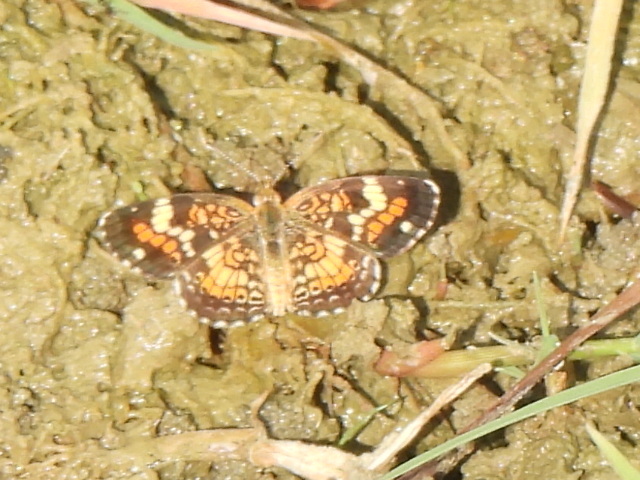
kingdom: Animalia
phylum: Arthropoda
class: Insecta
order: Lepidoptera
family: Nymphalidae
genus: Phyciodes
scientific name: Phyciodes phaon
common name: Phaon crescent
